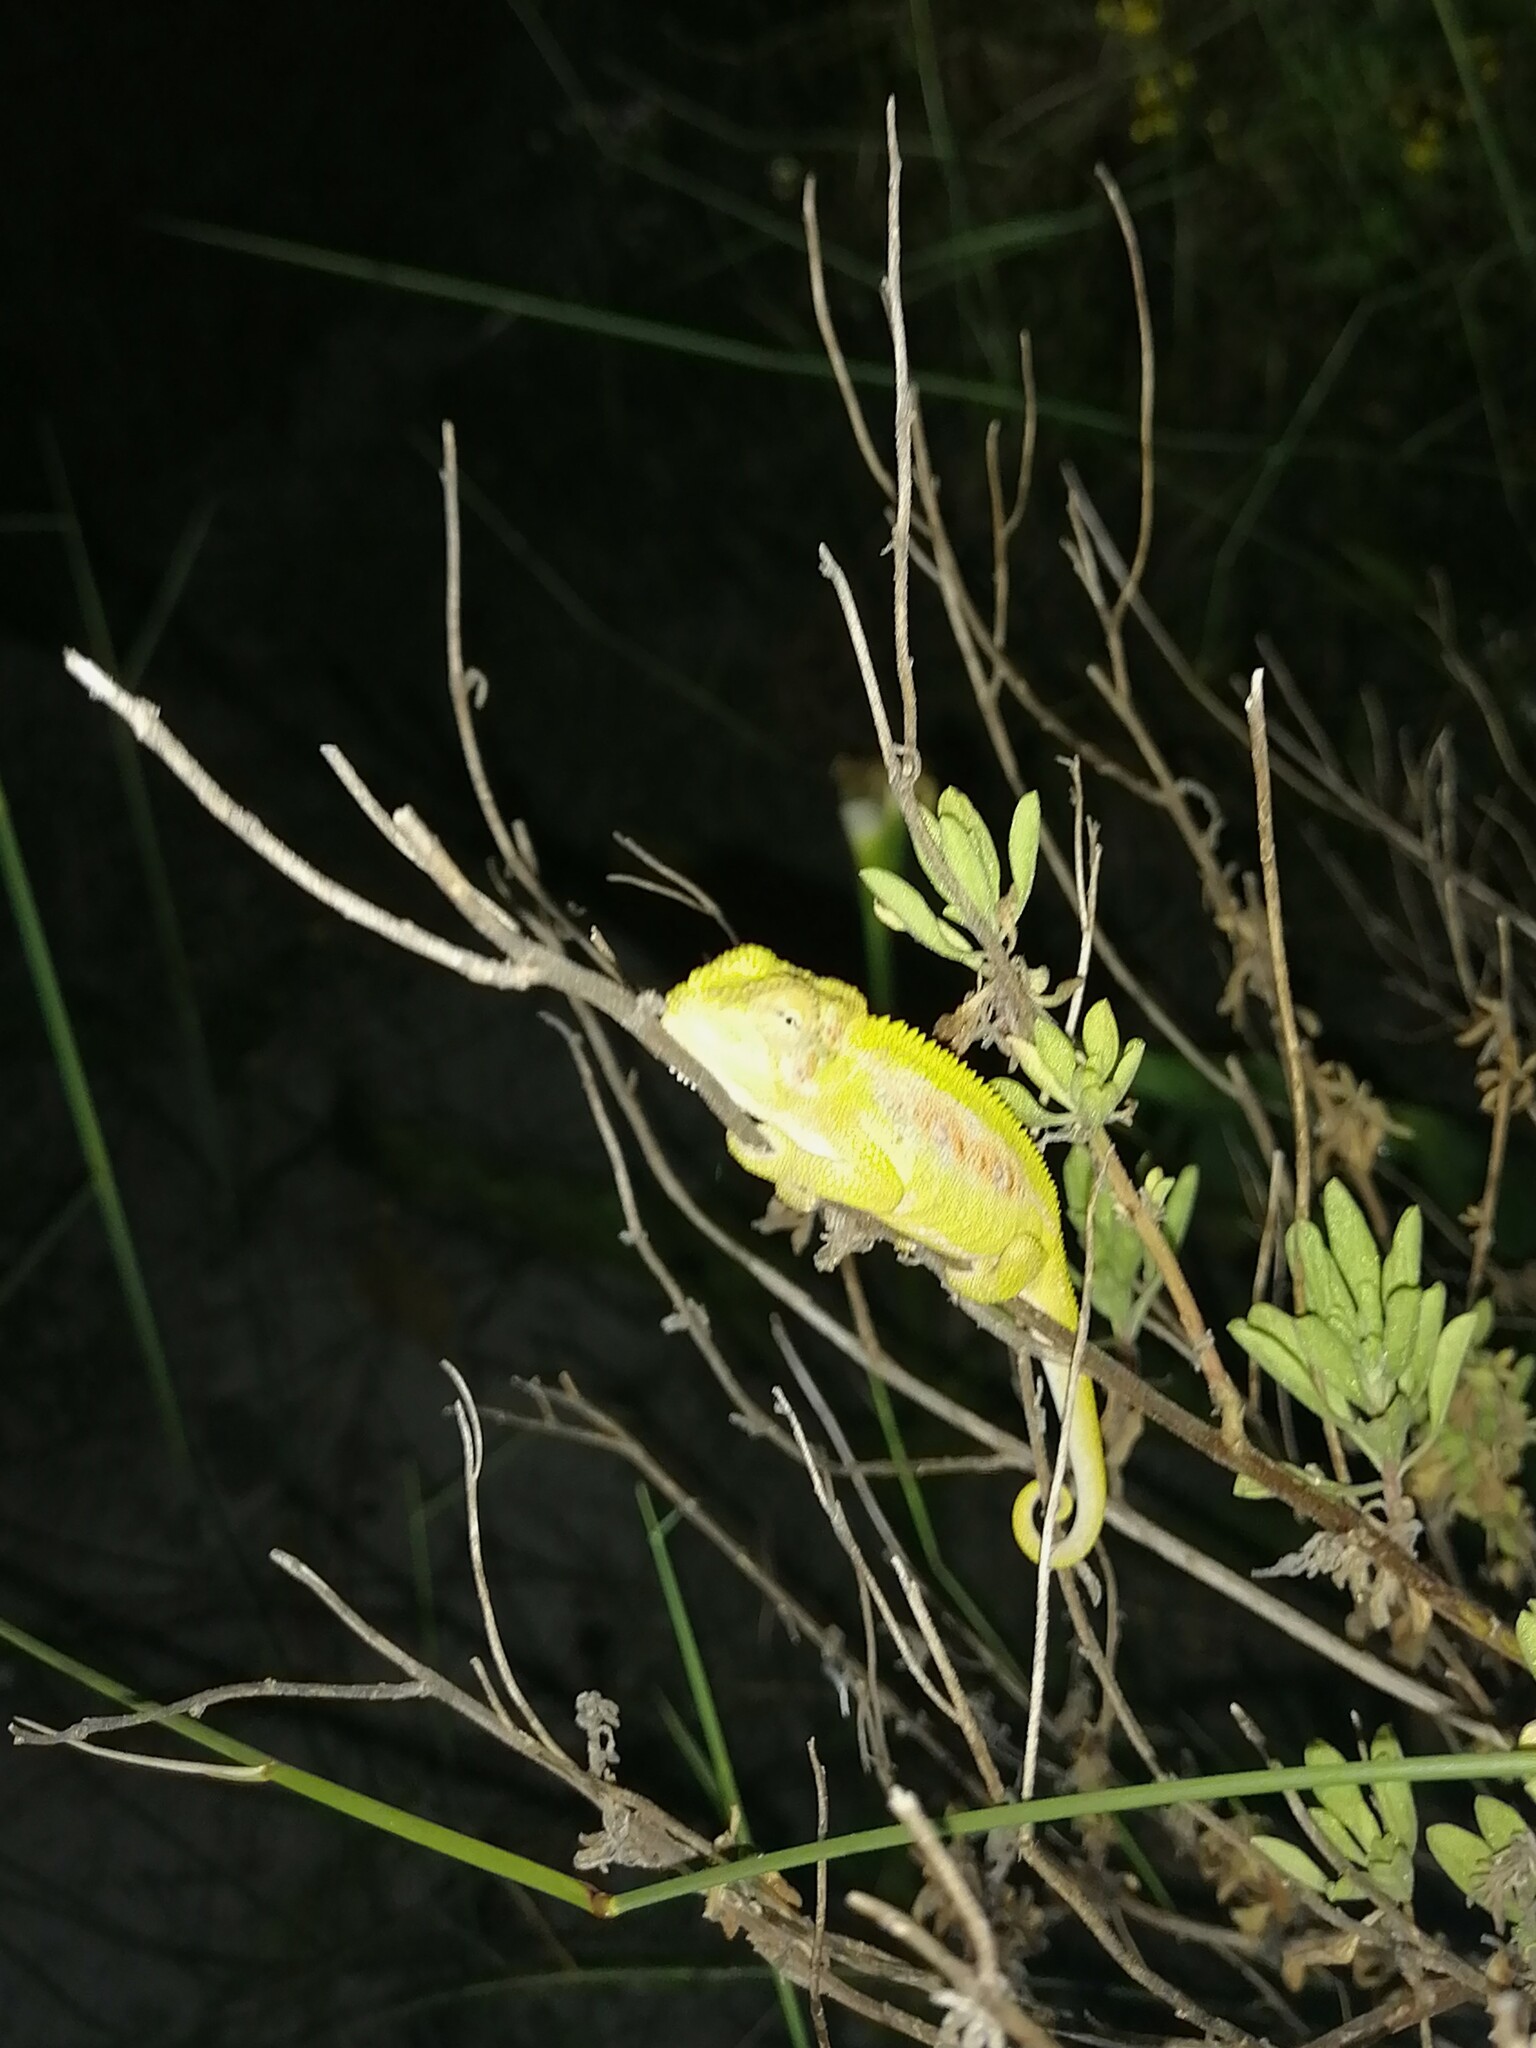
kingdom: Animalia
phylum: Chordata
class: Squamata
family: Chamaeleonidae
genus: Bradypodion
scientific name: Bradypodion pumilum
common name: Cape dwarf chameleon
